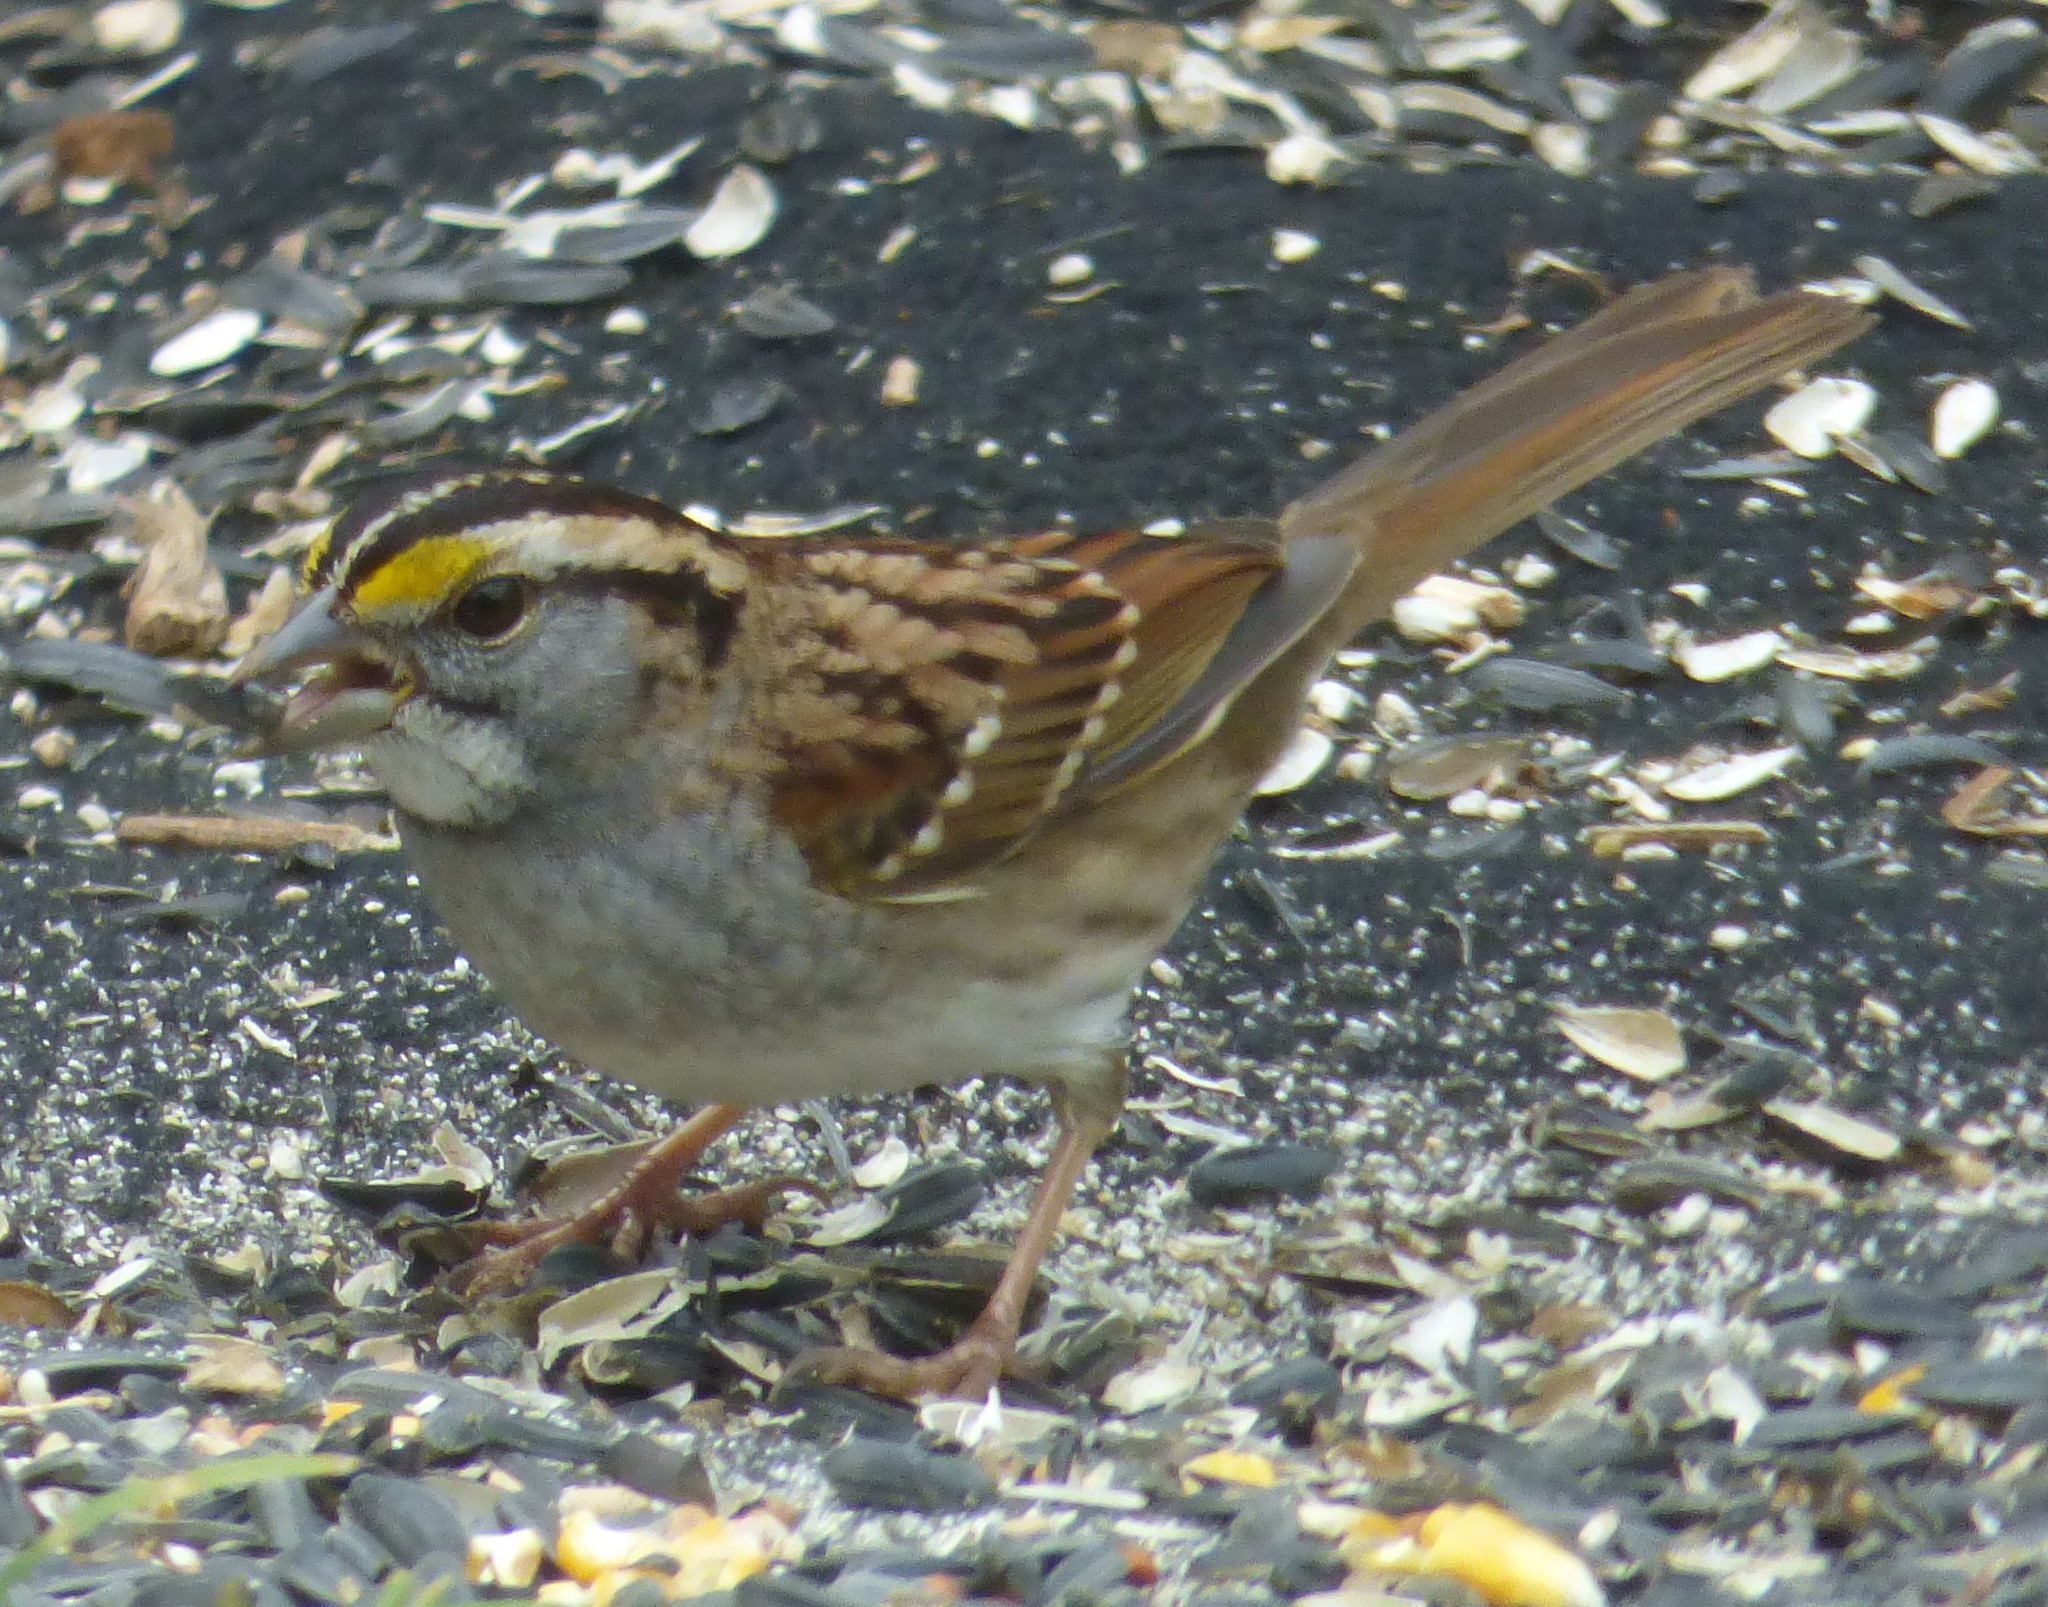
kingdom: Animalia
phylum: Chordata
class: Aves
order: Passeriformes
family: Passerellidae
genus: Zonotrichia
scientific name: Zonotrichia albicollis
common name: White-throated sparrow
